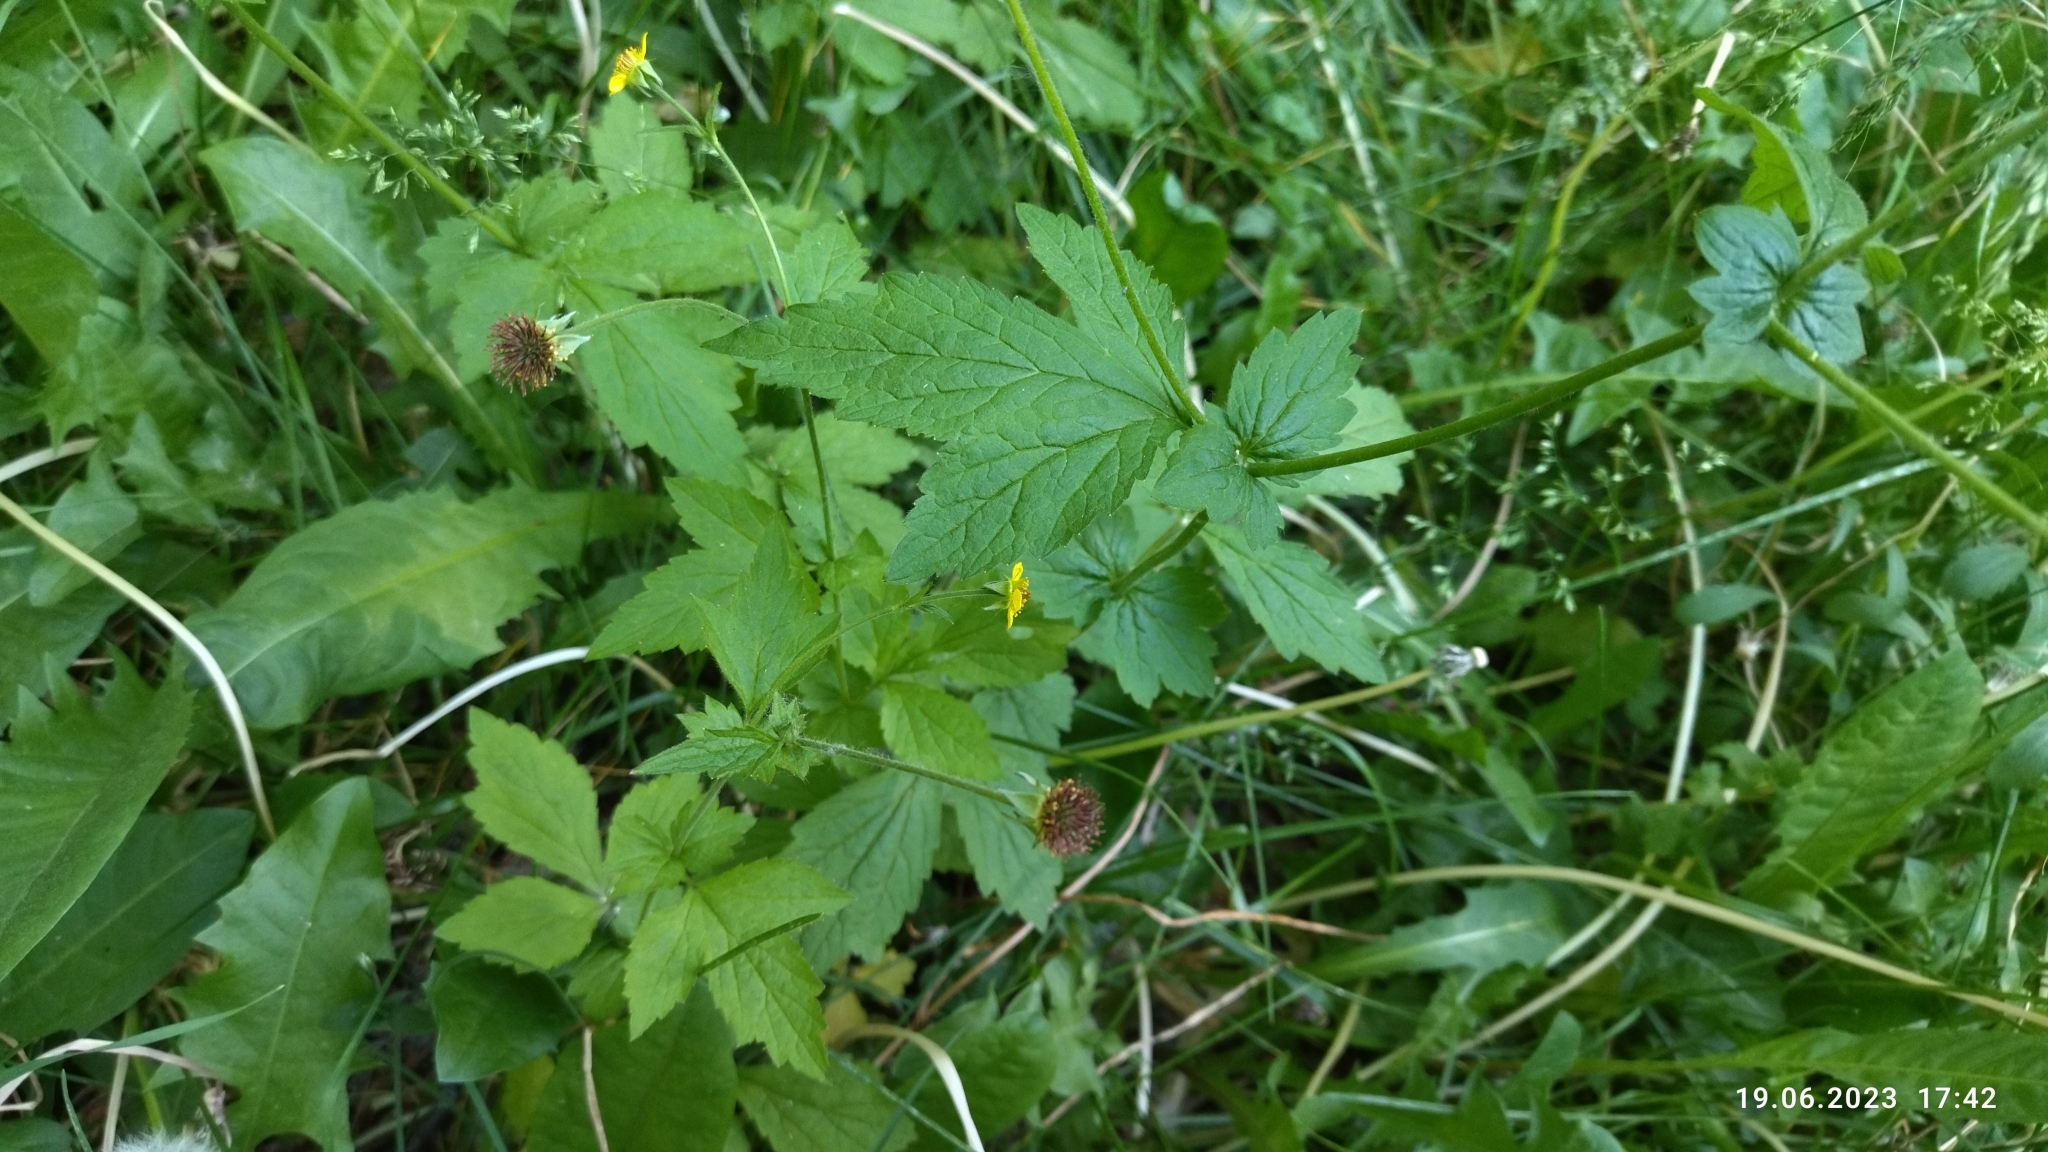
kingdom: Plantae
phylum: Tracheophyta
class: Magnoliopsida
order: Rosales
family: Rosaceae
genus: Geum
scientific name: Geum urbanum
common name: Wood avens
